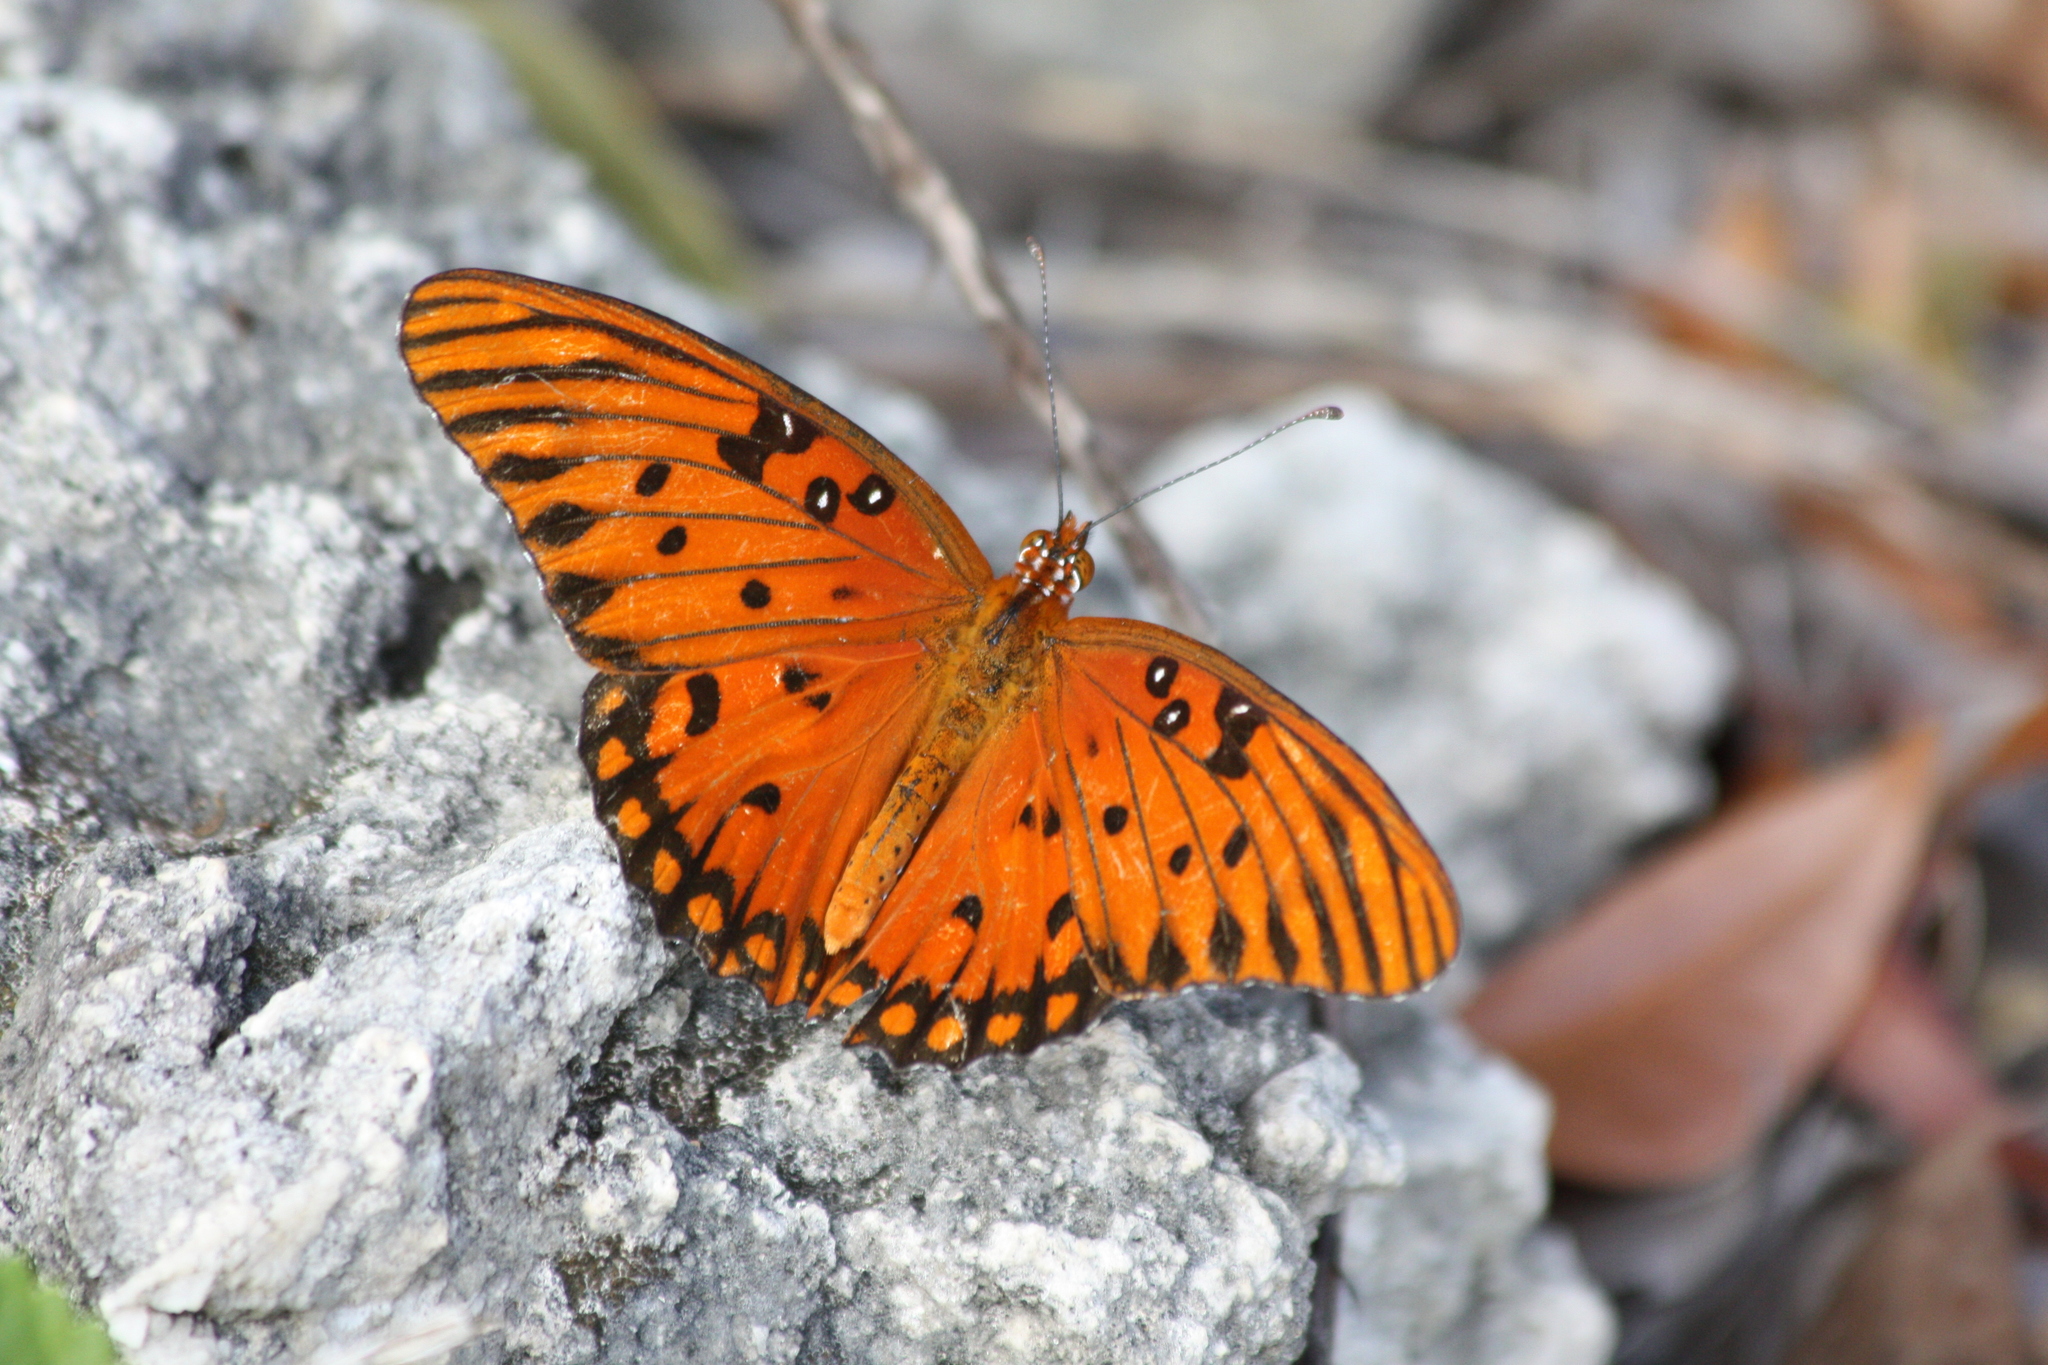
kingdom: Animalia
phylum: Arthropoda
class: Insecta
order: Lepidoptera
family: Nymphalidae
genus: Dione
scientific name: Dione vanillae
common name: Gulf fritillary
